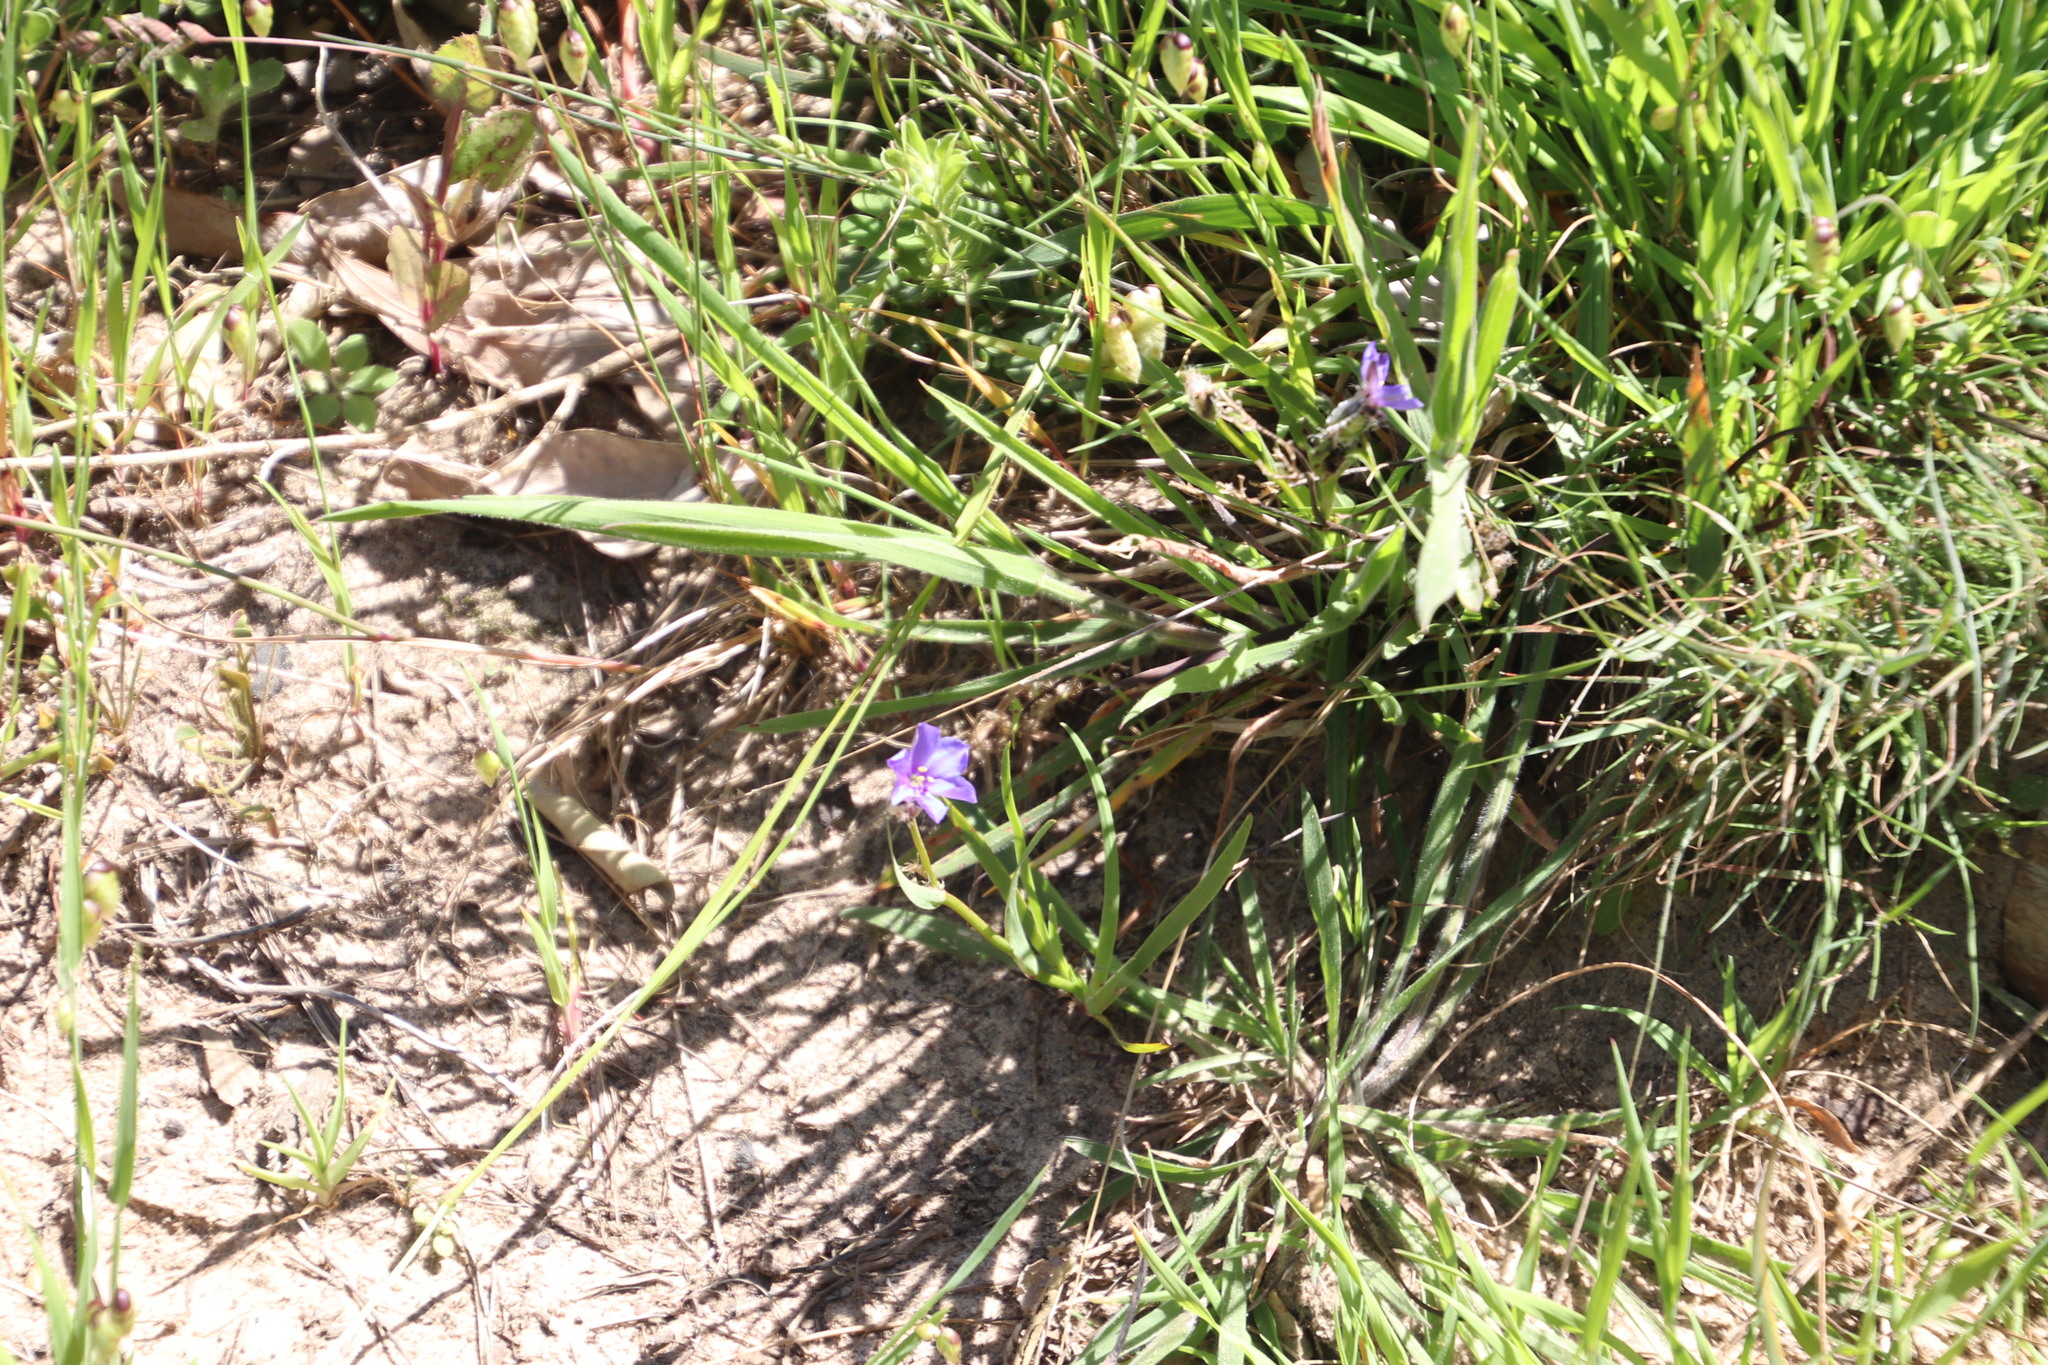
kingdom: Plantae
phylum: Tracheophyta
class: Liliopsida
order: Asparagales
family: Iridaceae
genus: Aristea
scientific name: Aristea africana
